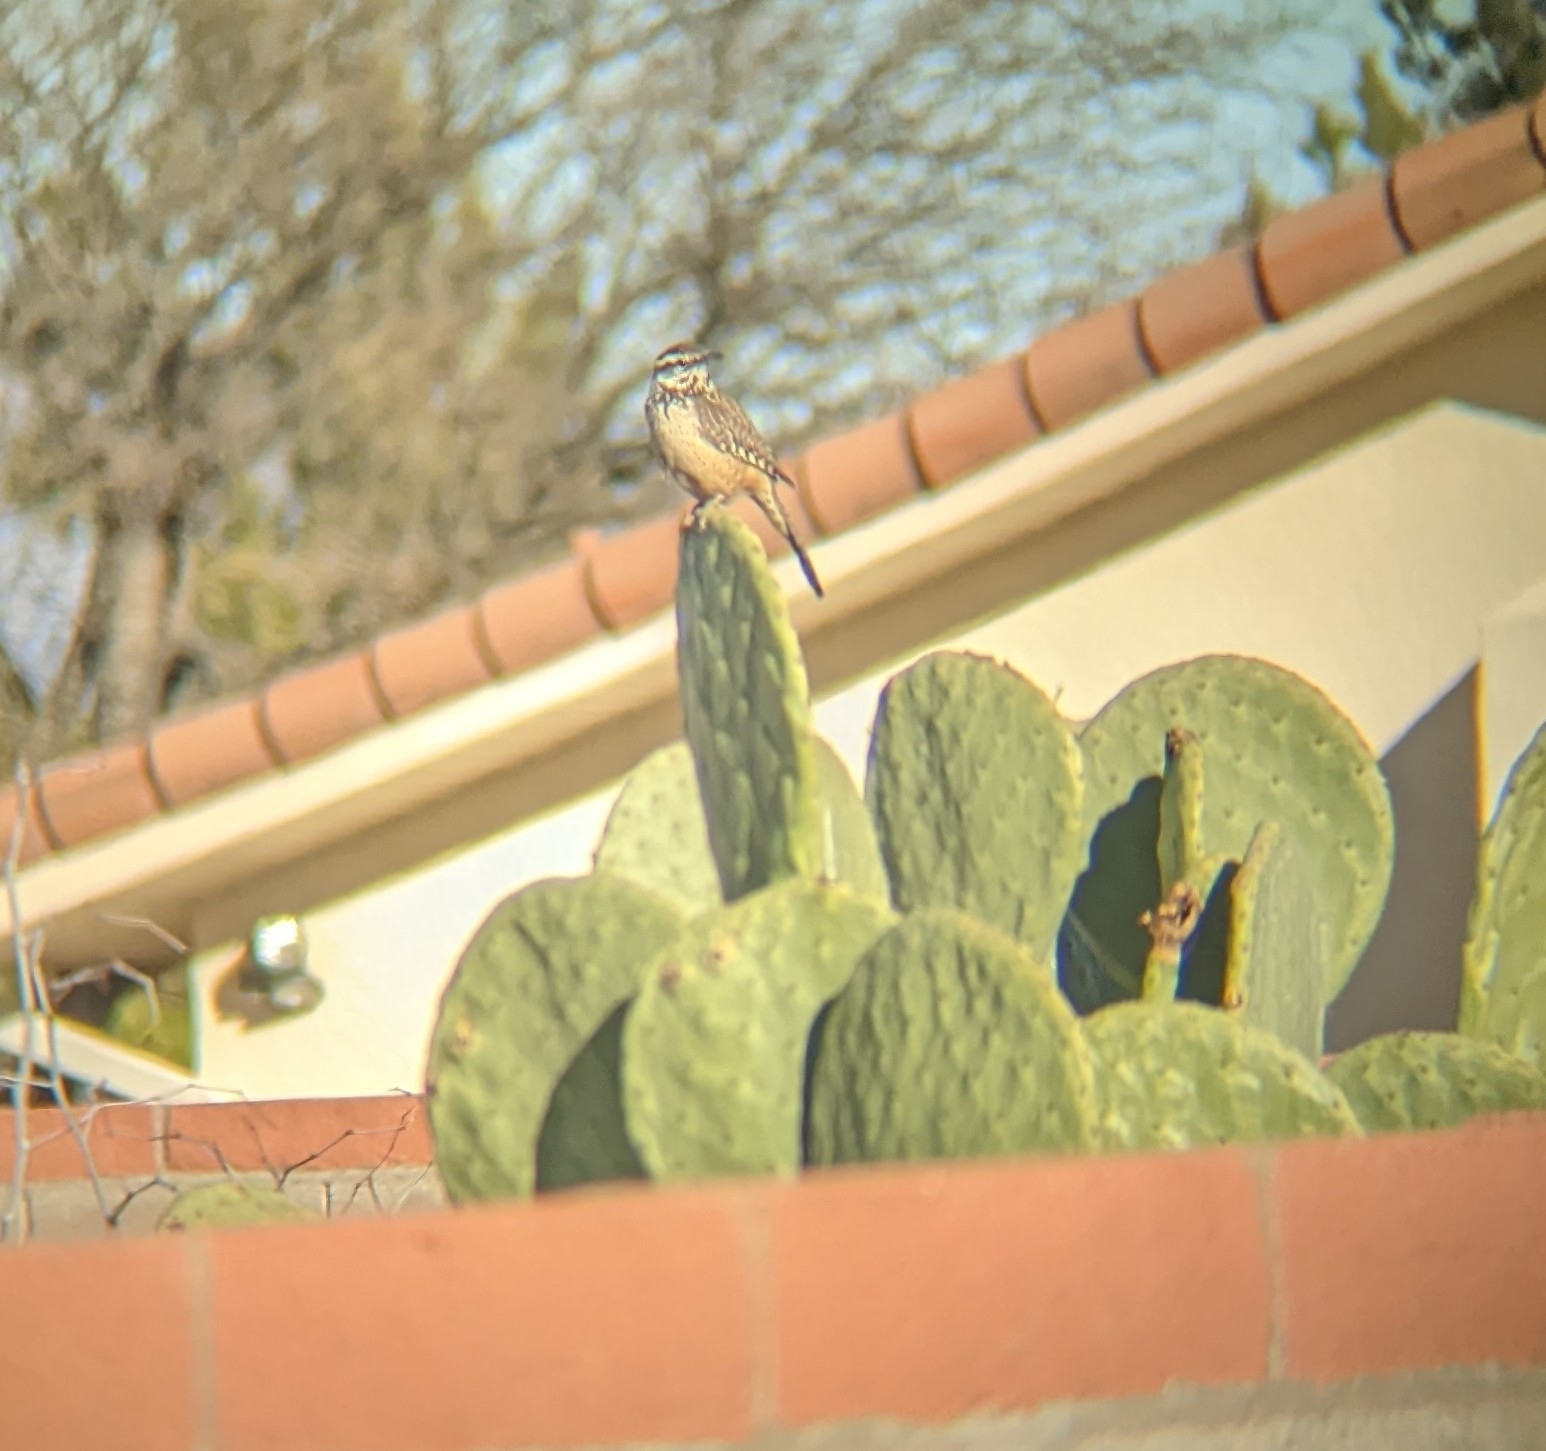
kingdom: Animalia
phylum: Chordata
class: Aves
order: Passeriformes
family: Troglodytidae
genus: Campylorhynchus
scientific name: Campylorhynchus brunneicapillus
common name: Cactus wren
